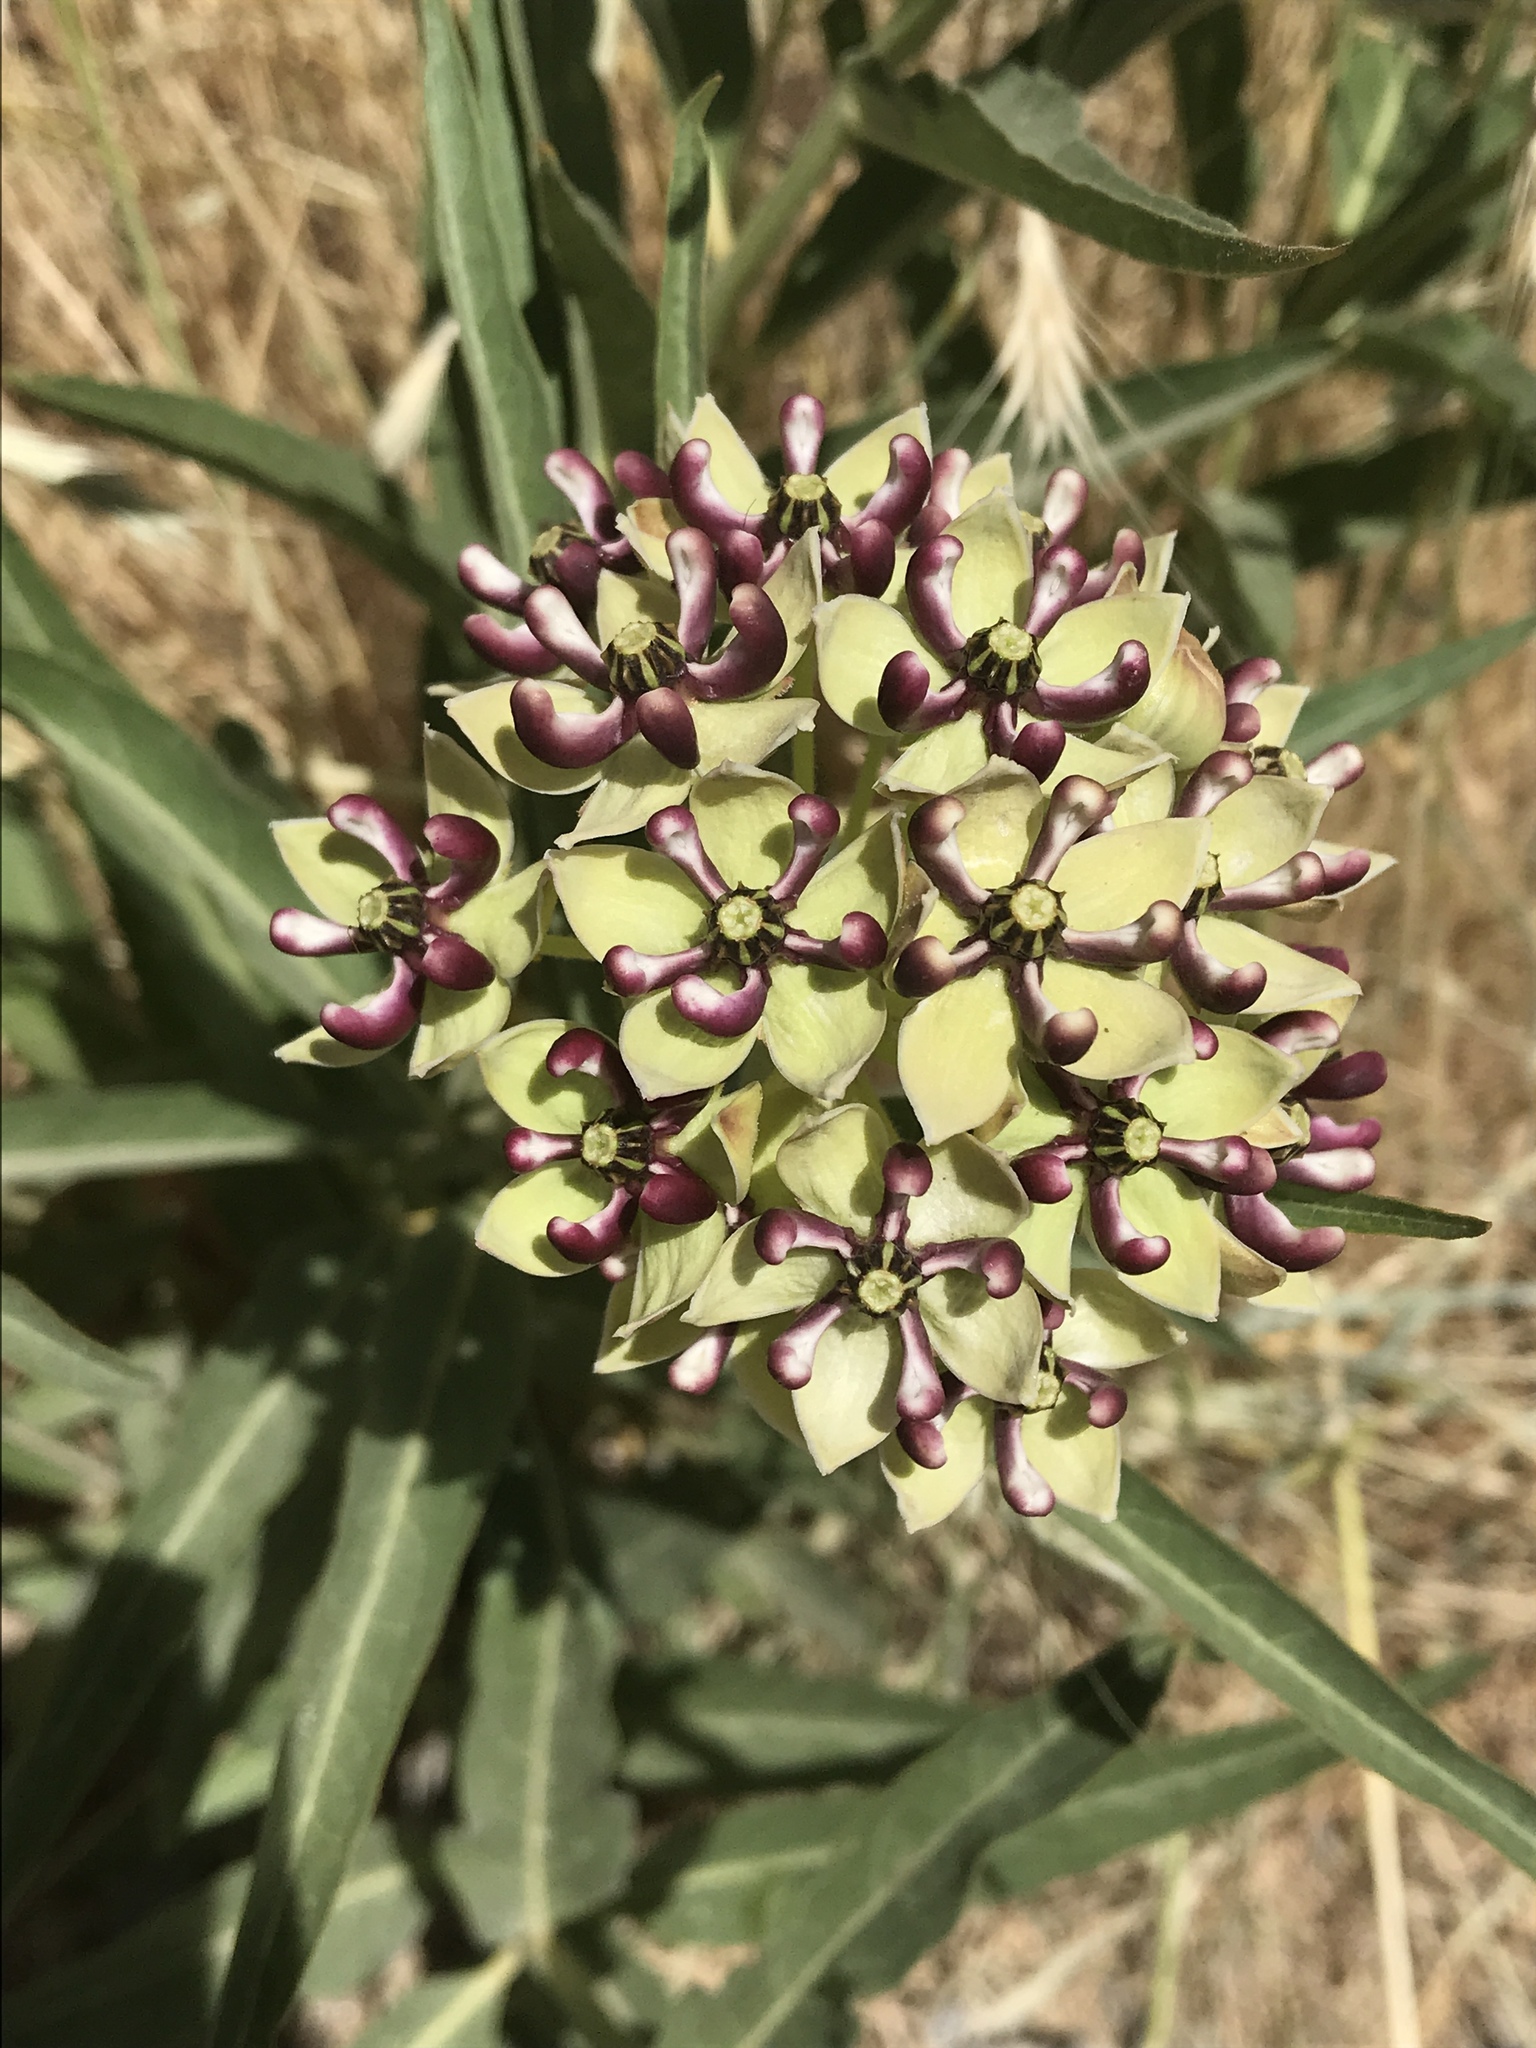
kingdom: Plantae
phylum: Tracheophyta
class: Magnoliopsida
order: Gentianales
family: Apocynaceae
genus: Asclepias
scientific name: Asclepias asperula
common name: Antelope horns
